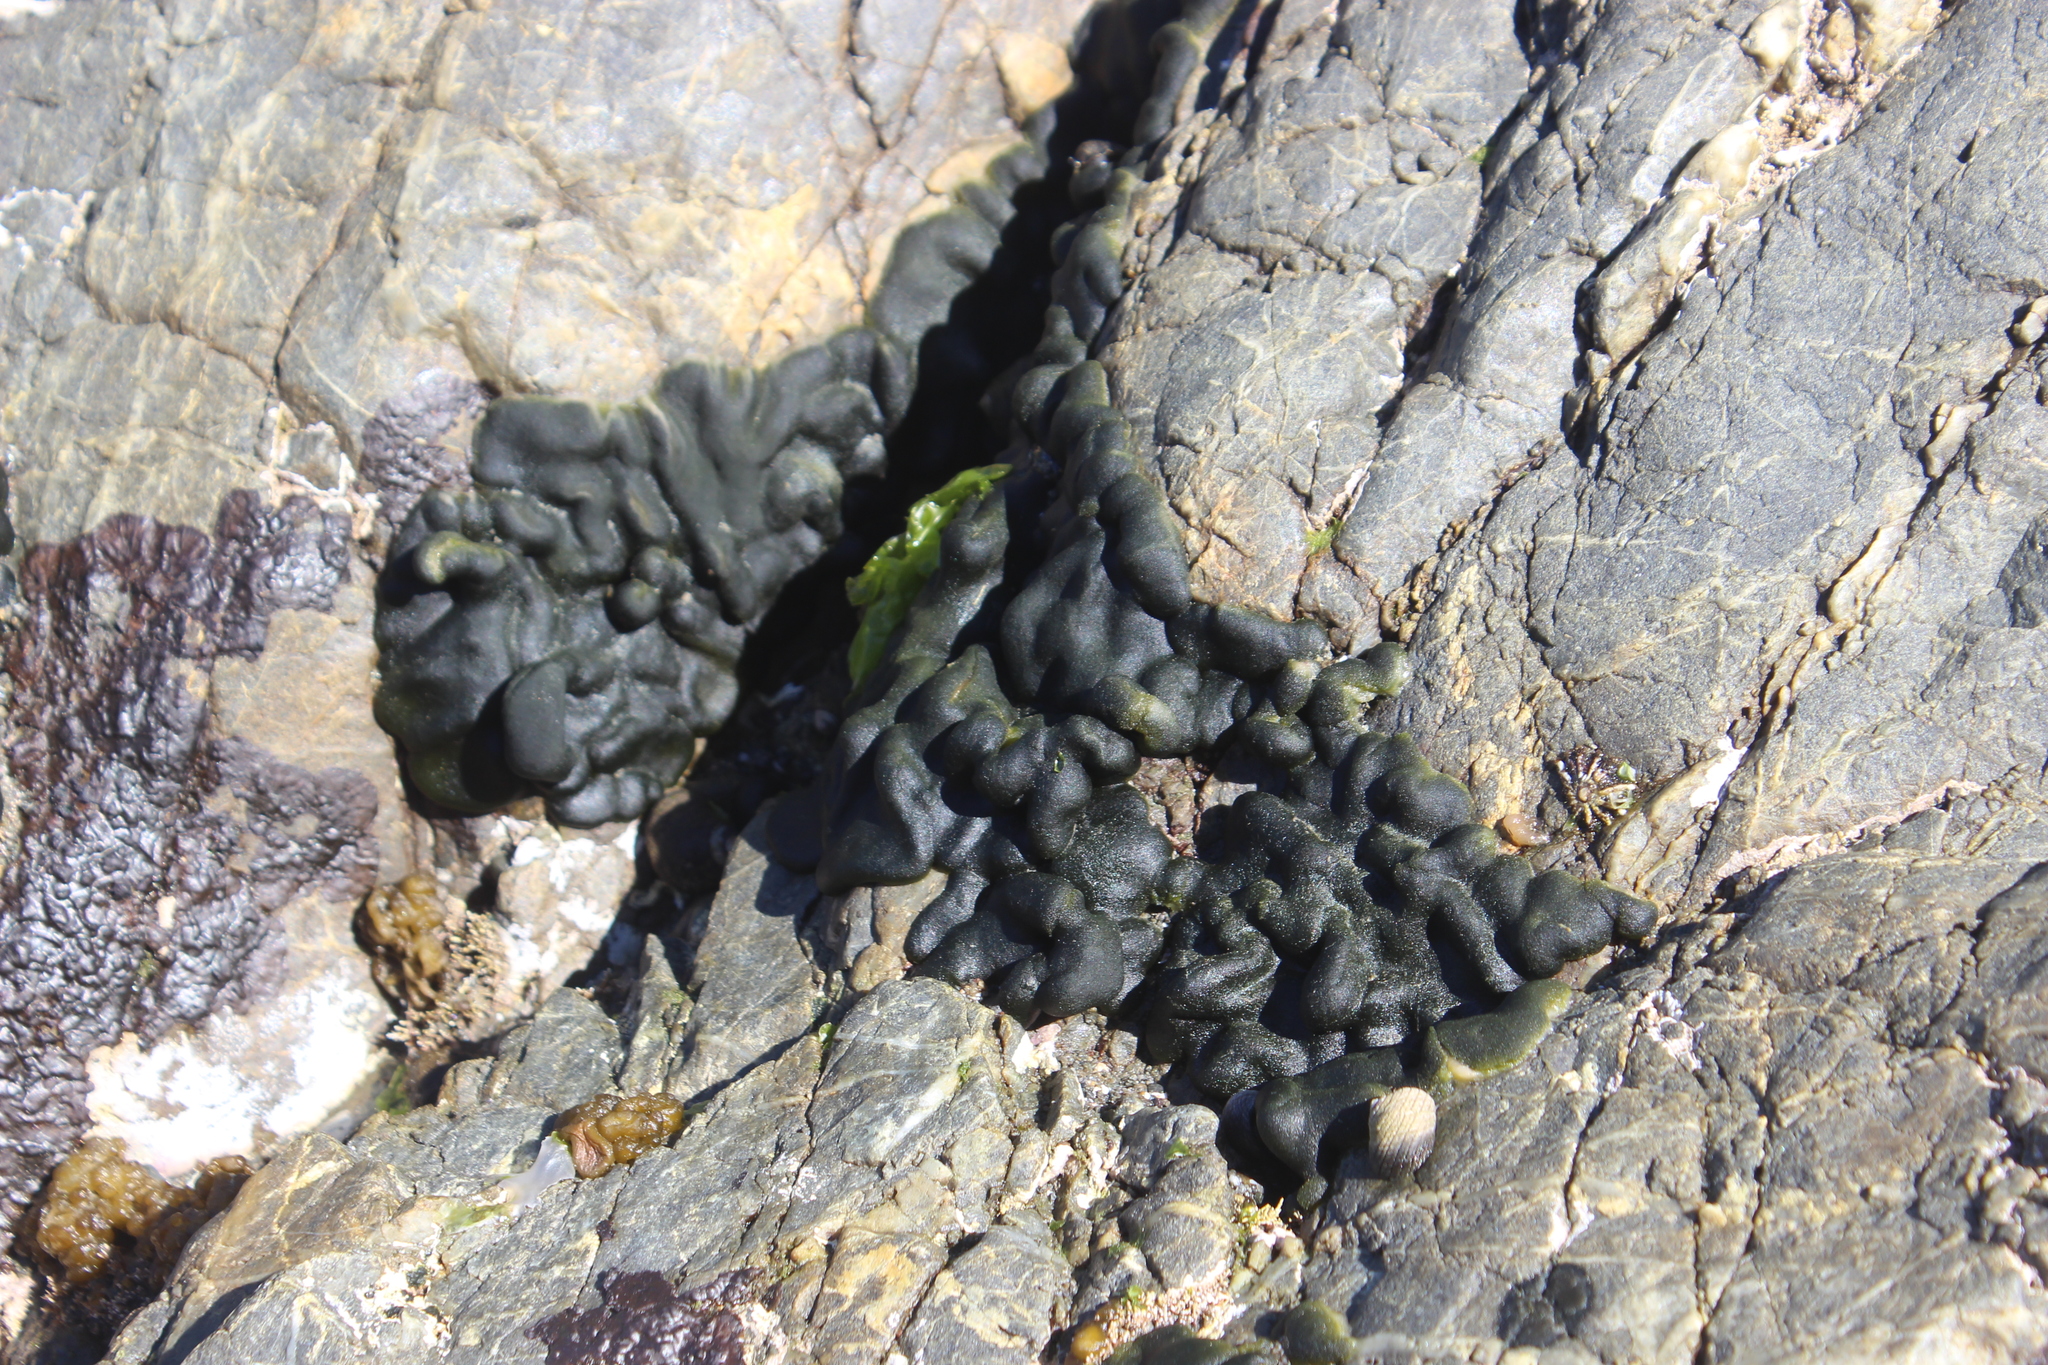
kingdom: Plantae
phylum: Chlorophyta
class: Ulvophyceae
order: Bryopsidales
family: Codiaceae
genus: Codium
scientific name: Codium convolutum
